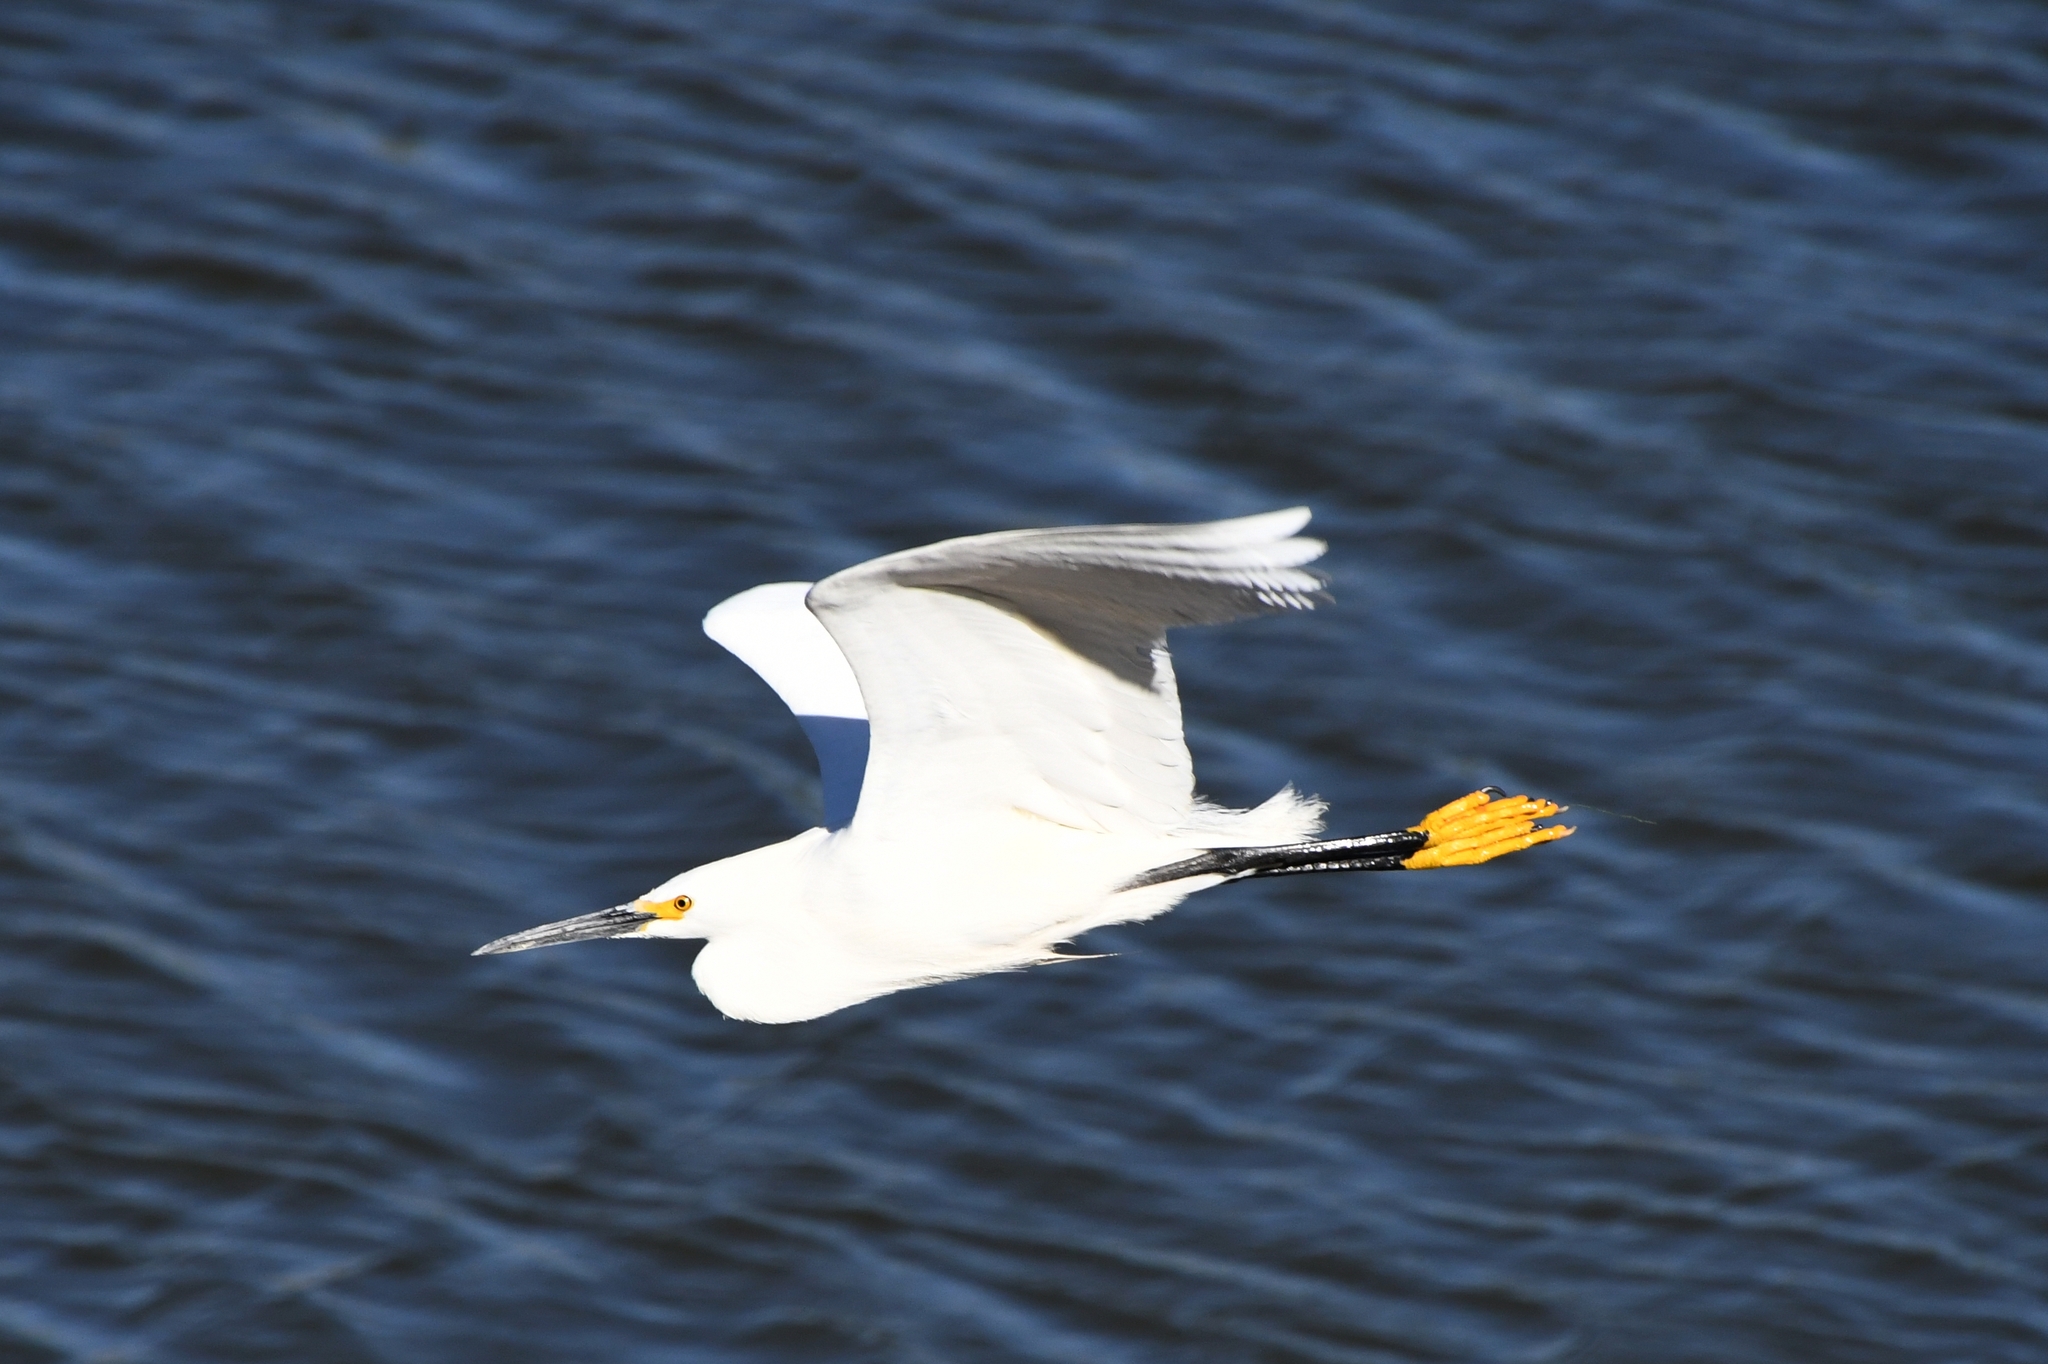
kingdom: Animalia
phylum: Chordata
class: Aves
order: Pelecaniformes
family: Ardeidae
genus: Egretta
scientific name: Egretta thula
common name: Snowy egret
